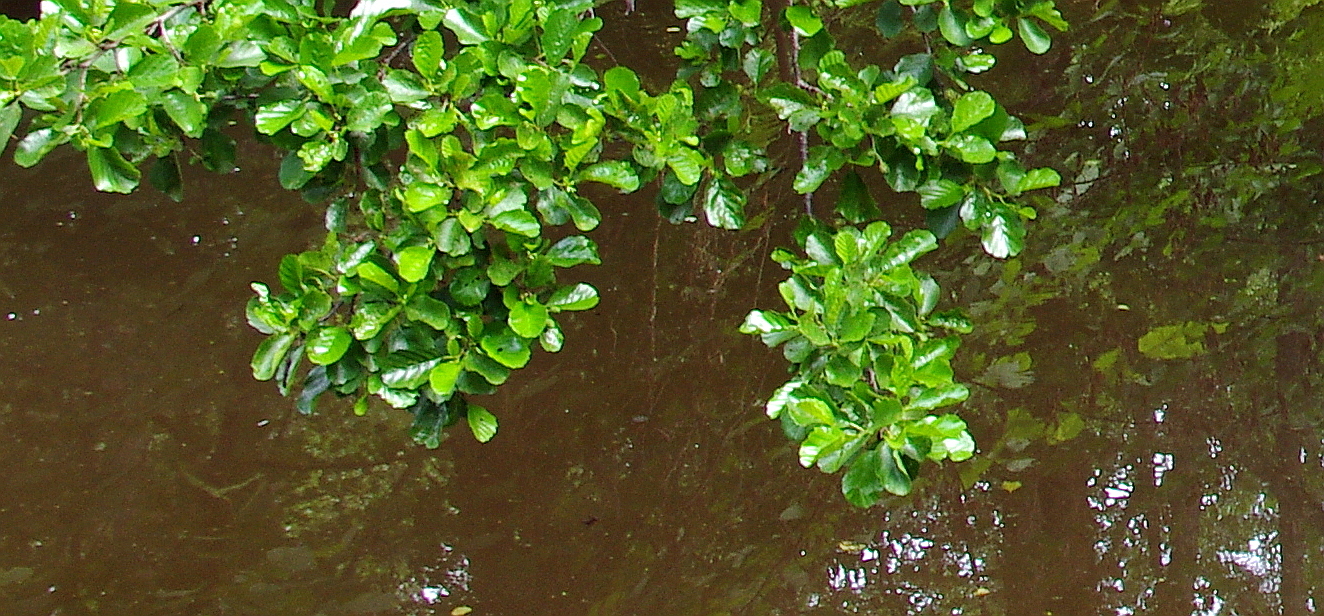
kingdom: Plantae
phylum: Tracheophyta
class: Magnoliopsida
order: Fagales
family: Betulaceae
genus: Alnus
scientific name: Alnus glutinosa
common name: Black alder
